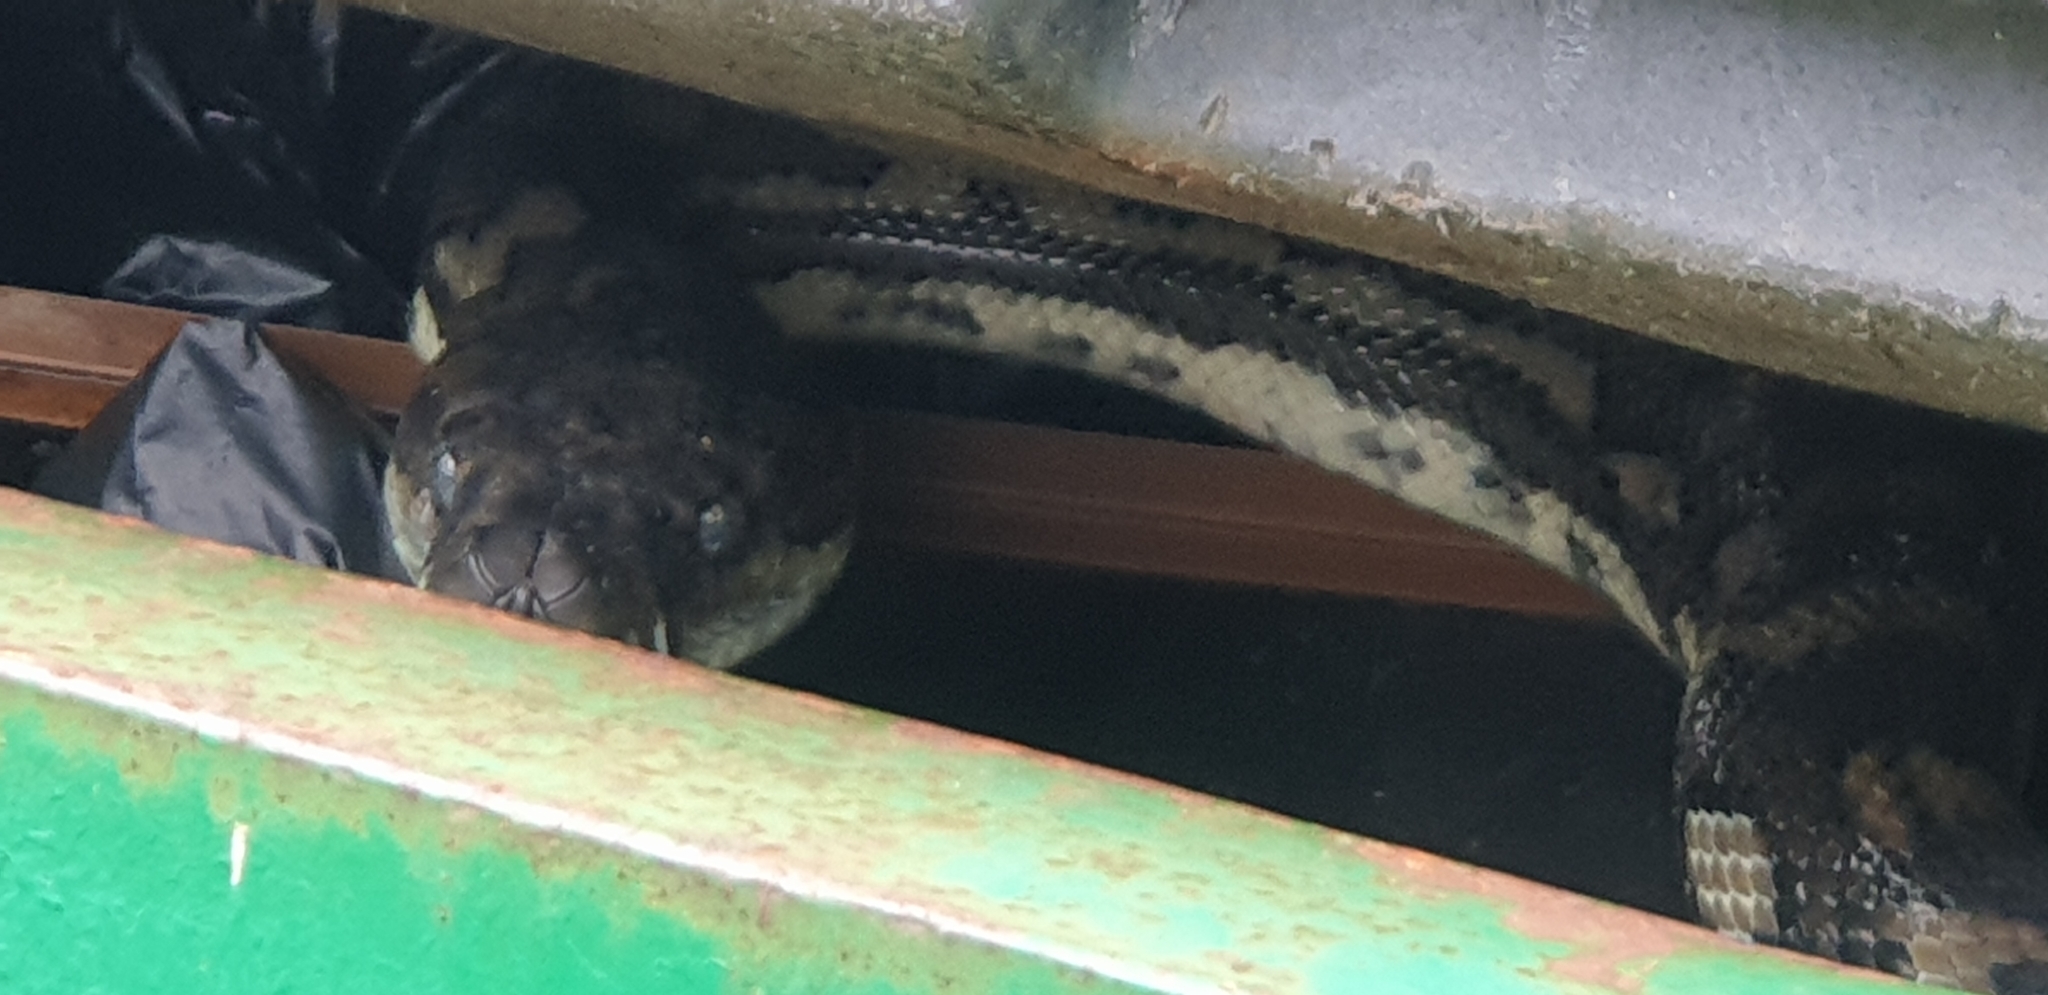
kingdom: Animalia
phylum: Chordata
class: Squamata
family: Pythonidae
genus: Morelia
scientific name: Morelia spilota
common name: Carpet python
